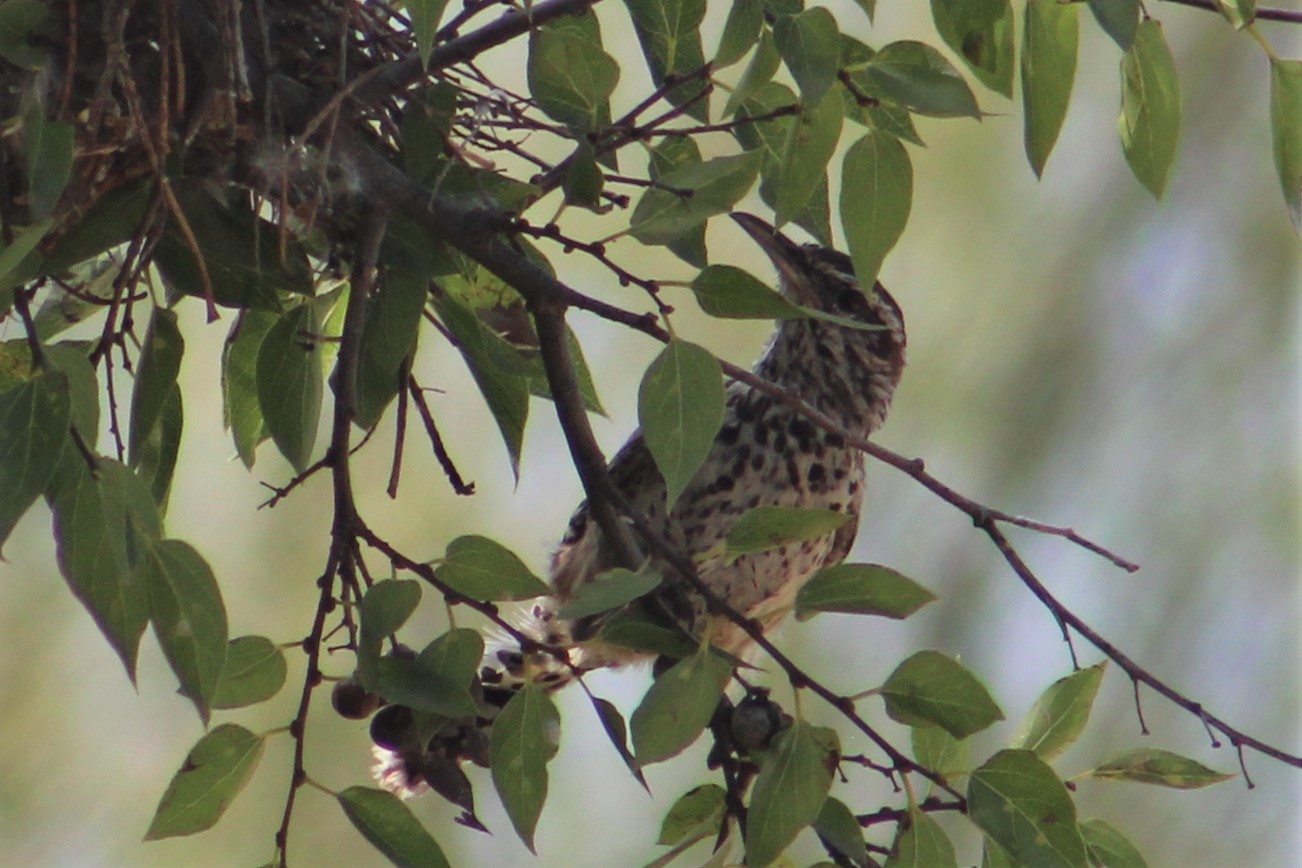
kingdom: Animalia
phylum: Chordata
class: Aves
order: Passeriformes
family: Troglodytidae
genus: Campylorhynchus
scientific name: Campylorhynchus brunneicapillus
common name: Cactus wren
